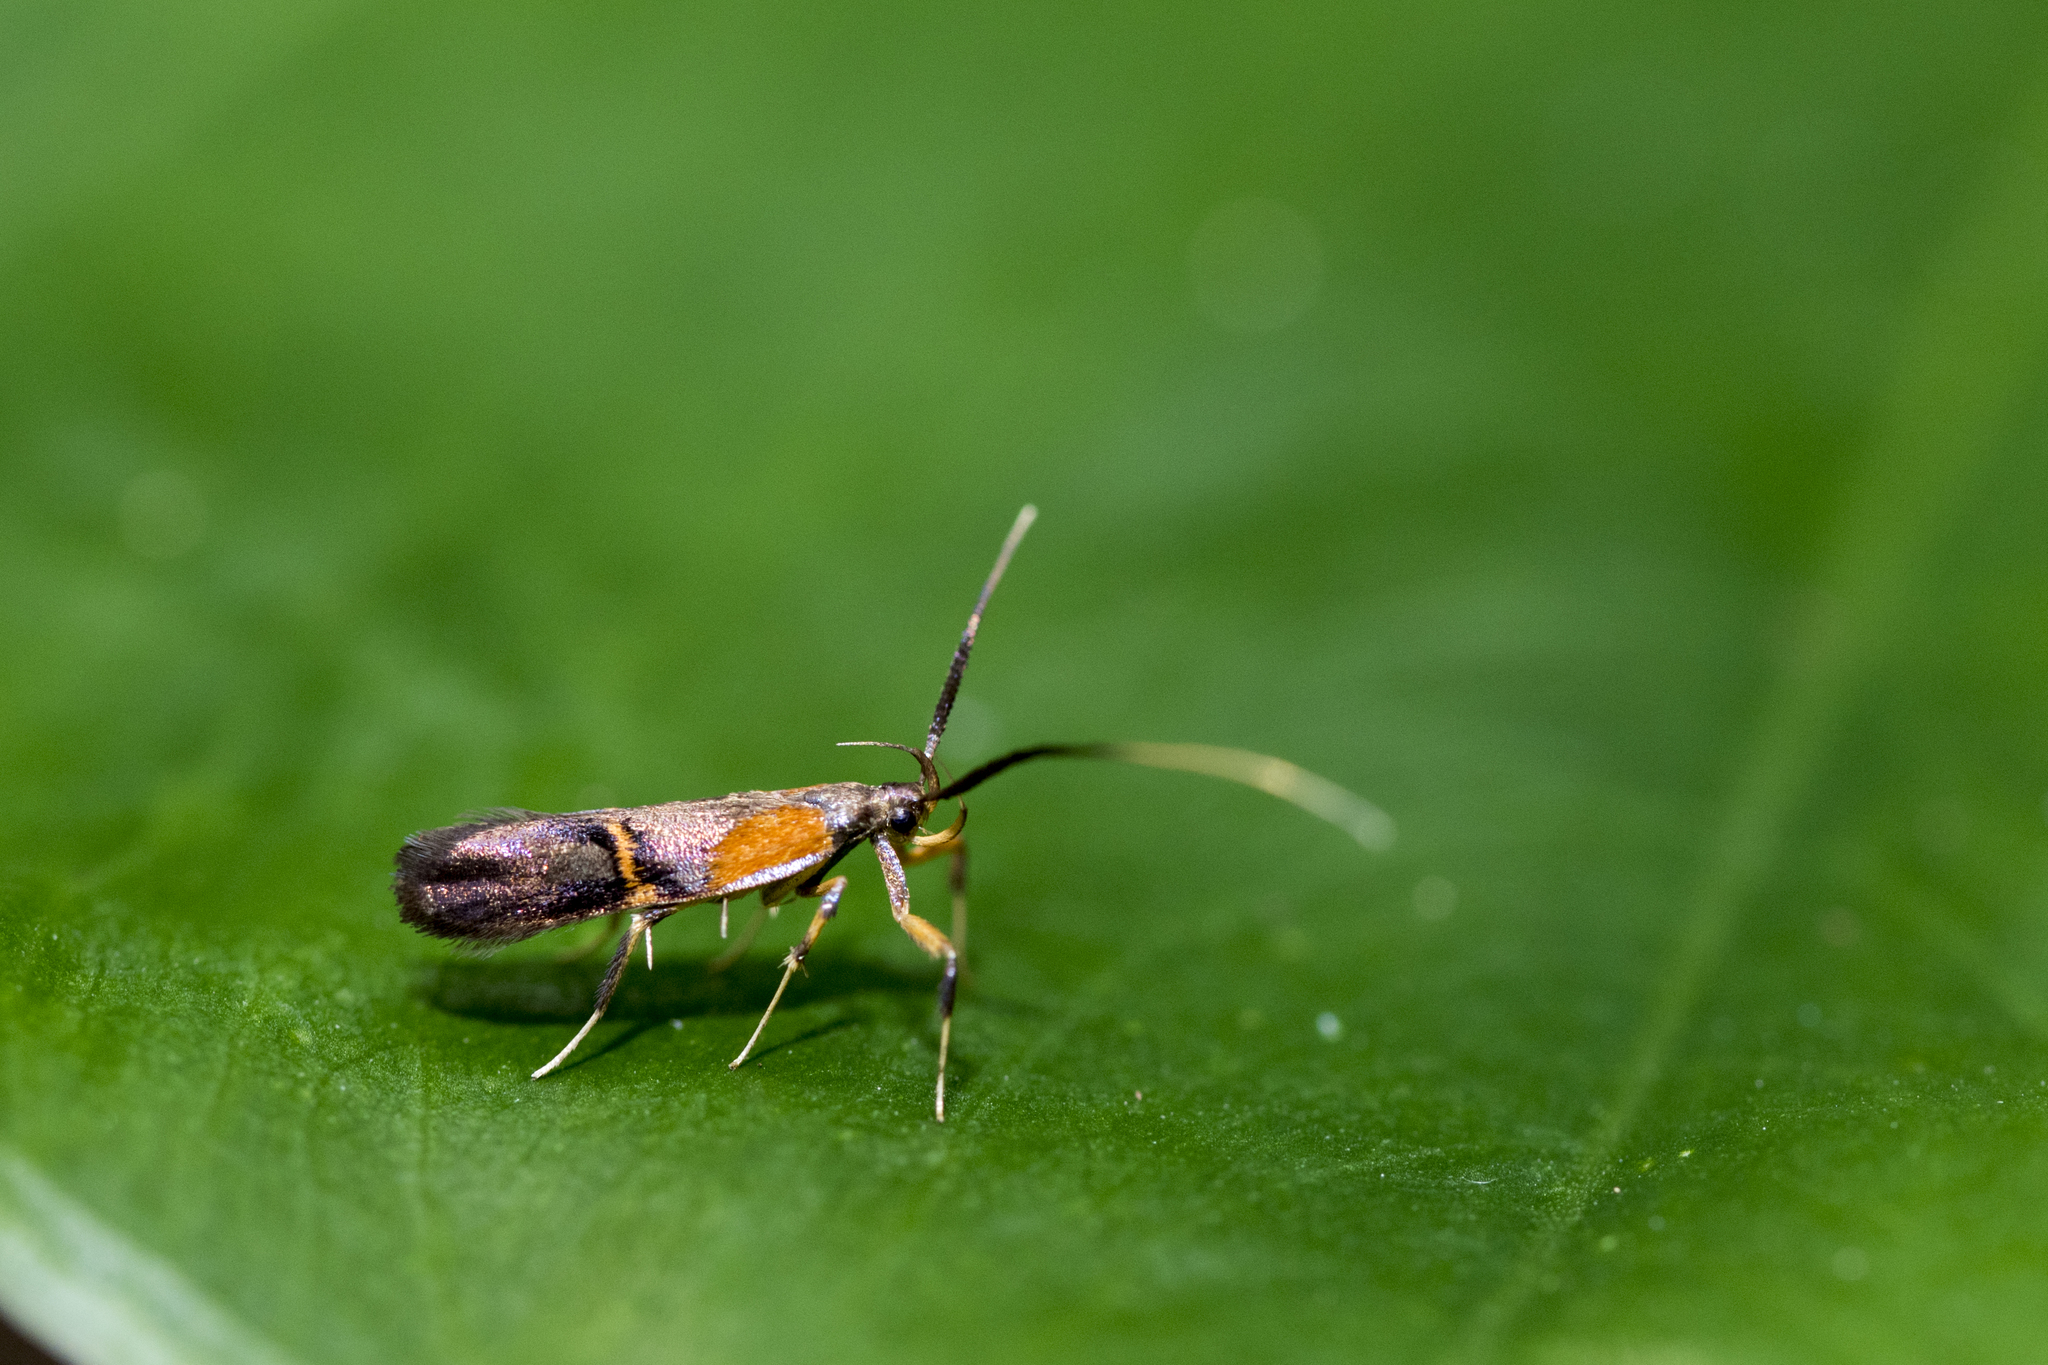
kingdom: Animalia
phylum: Arthropoda
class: Insecta
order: Lepidoptera
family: Lecithoceridae
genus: Tisis
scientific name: Tisis mesozosta
